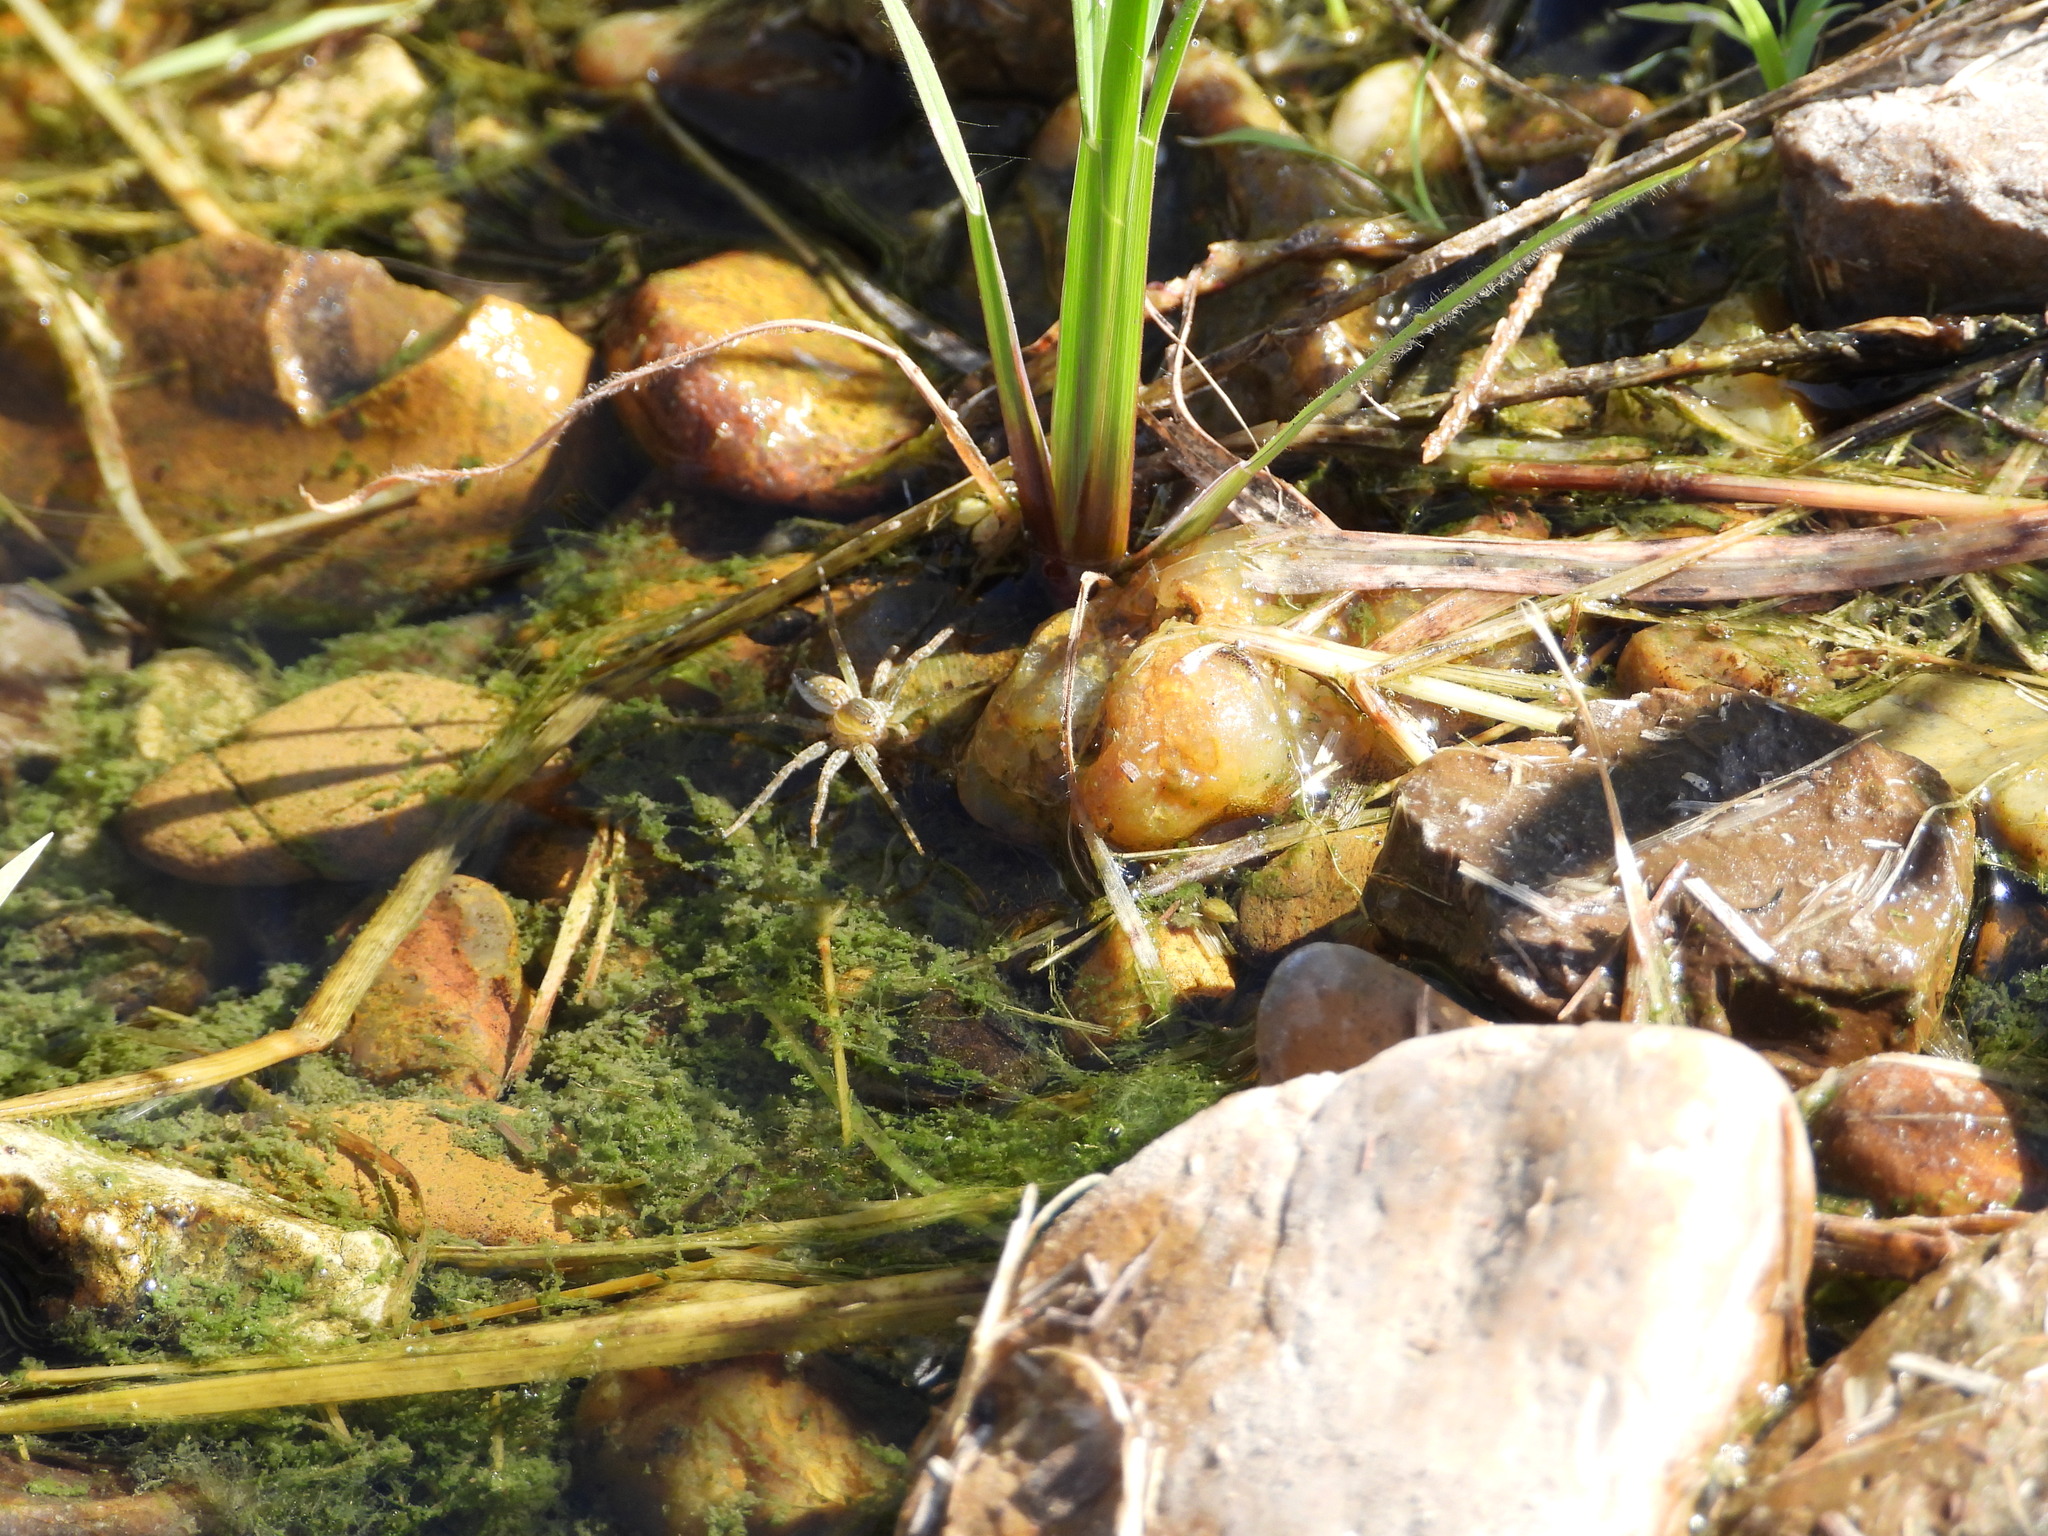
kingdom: Animalia
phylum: Arthropoda
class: Arachnida
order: Araneae
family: Pisauridae
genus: Dolomedes
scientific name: Dolomedes triton
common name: Six-spotted fishing spider
